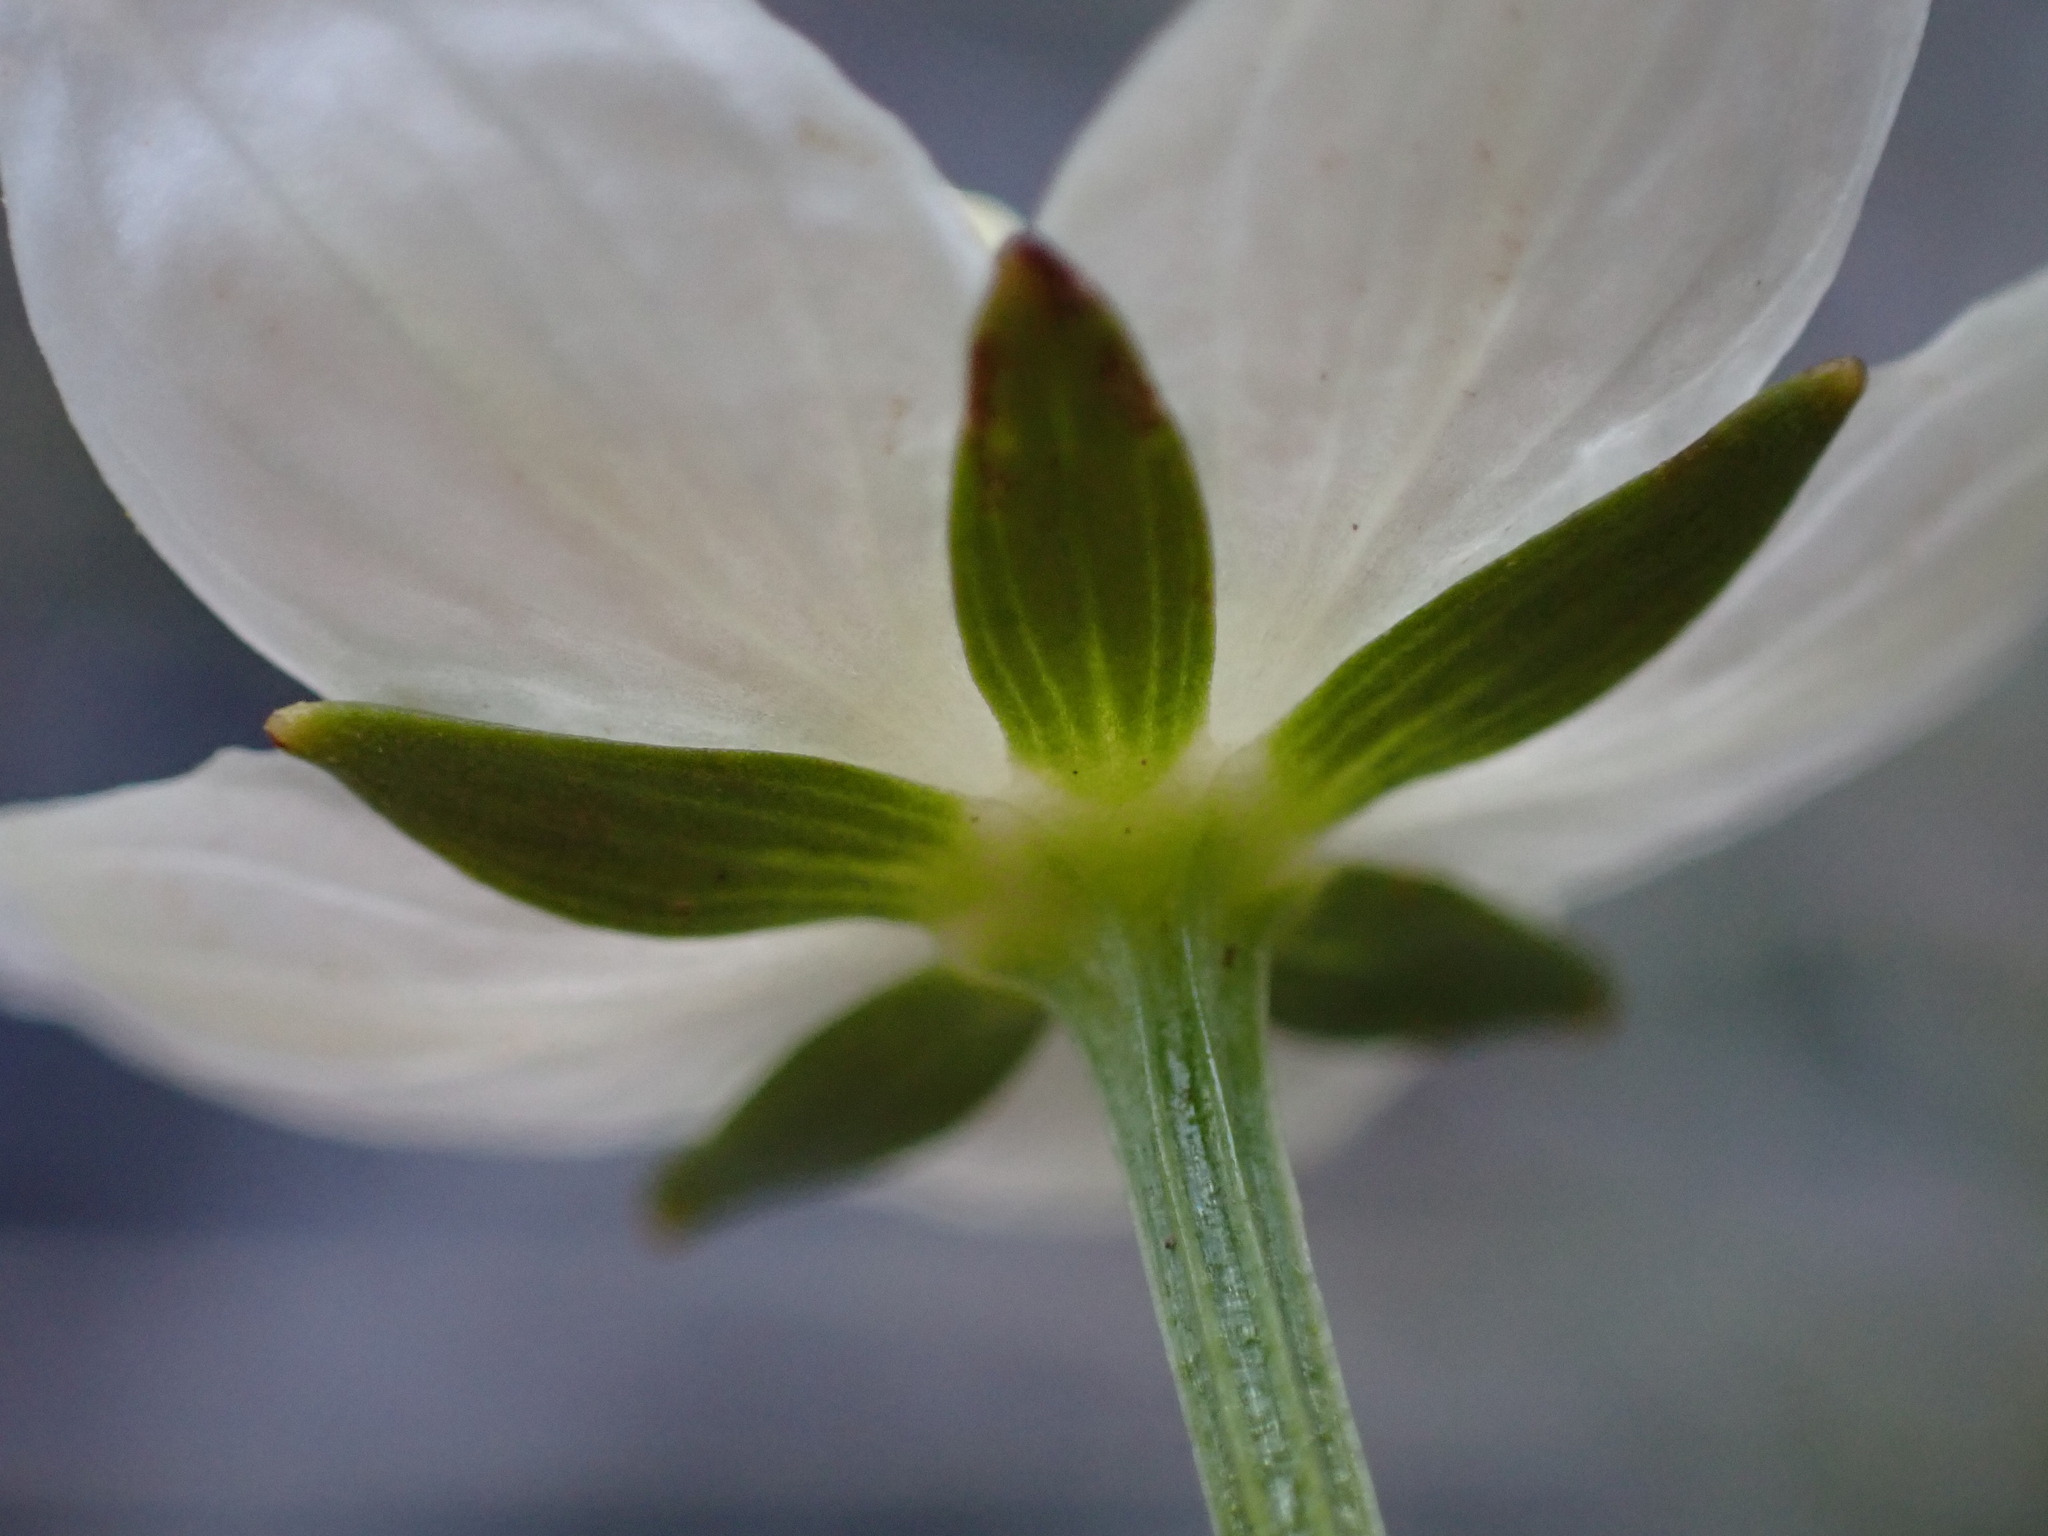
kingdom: Plantae
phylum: Tracheophyta
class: Magnoliopsida
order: Celastrales
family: Parnassiaceae
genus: Parnassia
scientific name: Parnassia palustris
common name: Grass-of-parnassus
